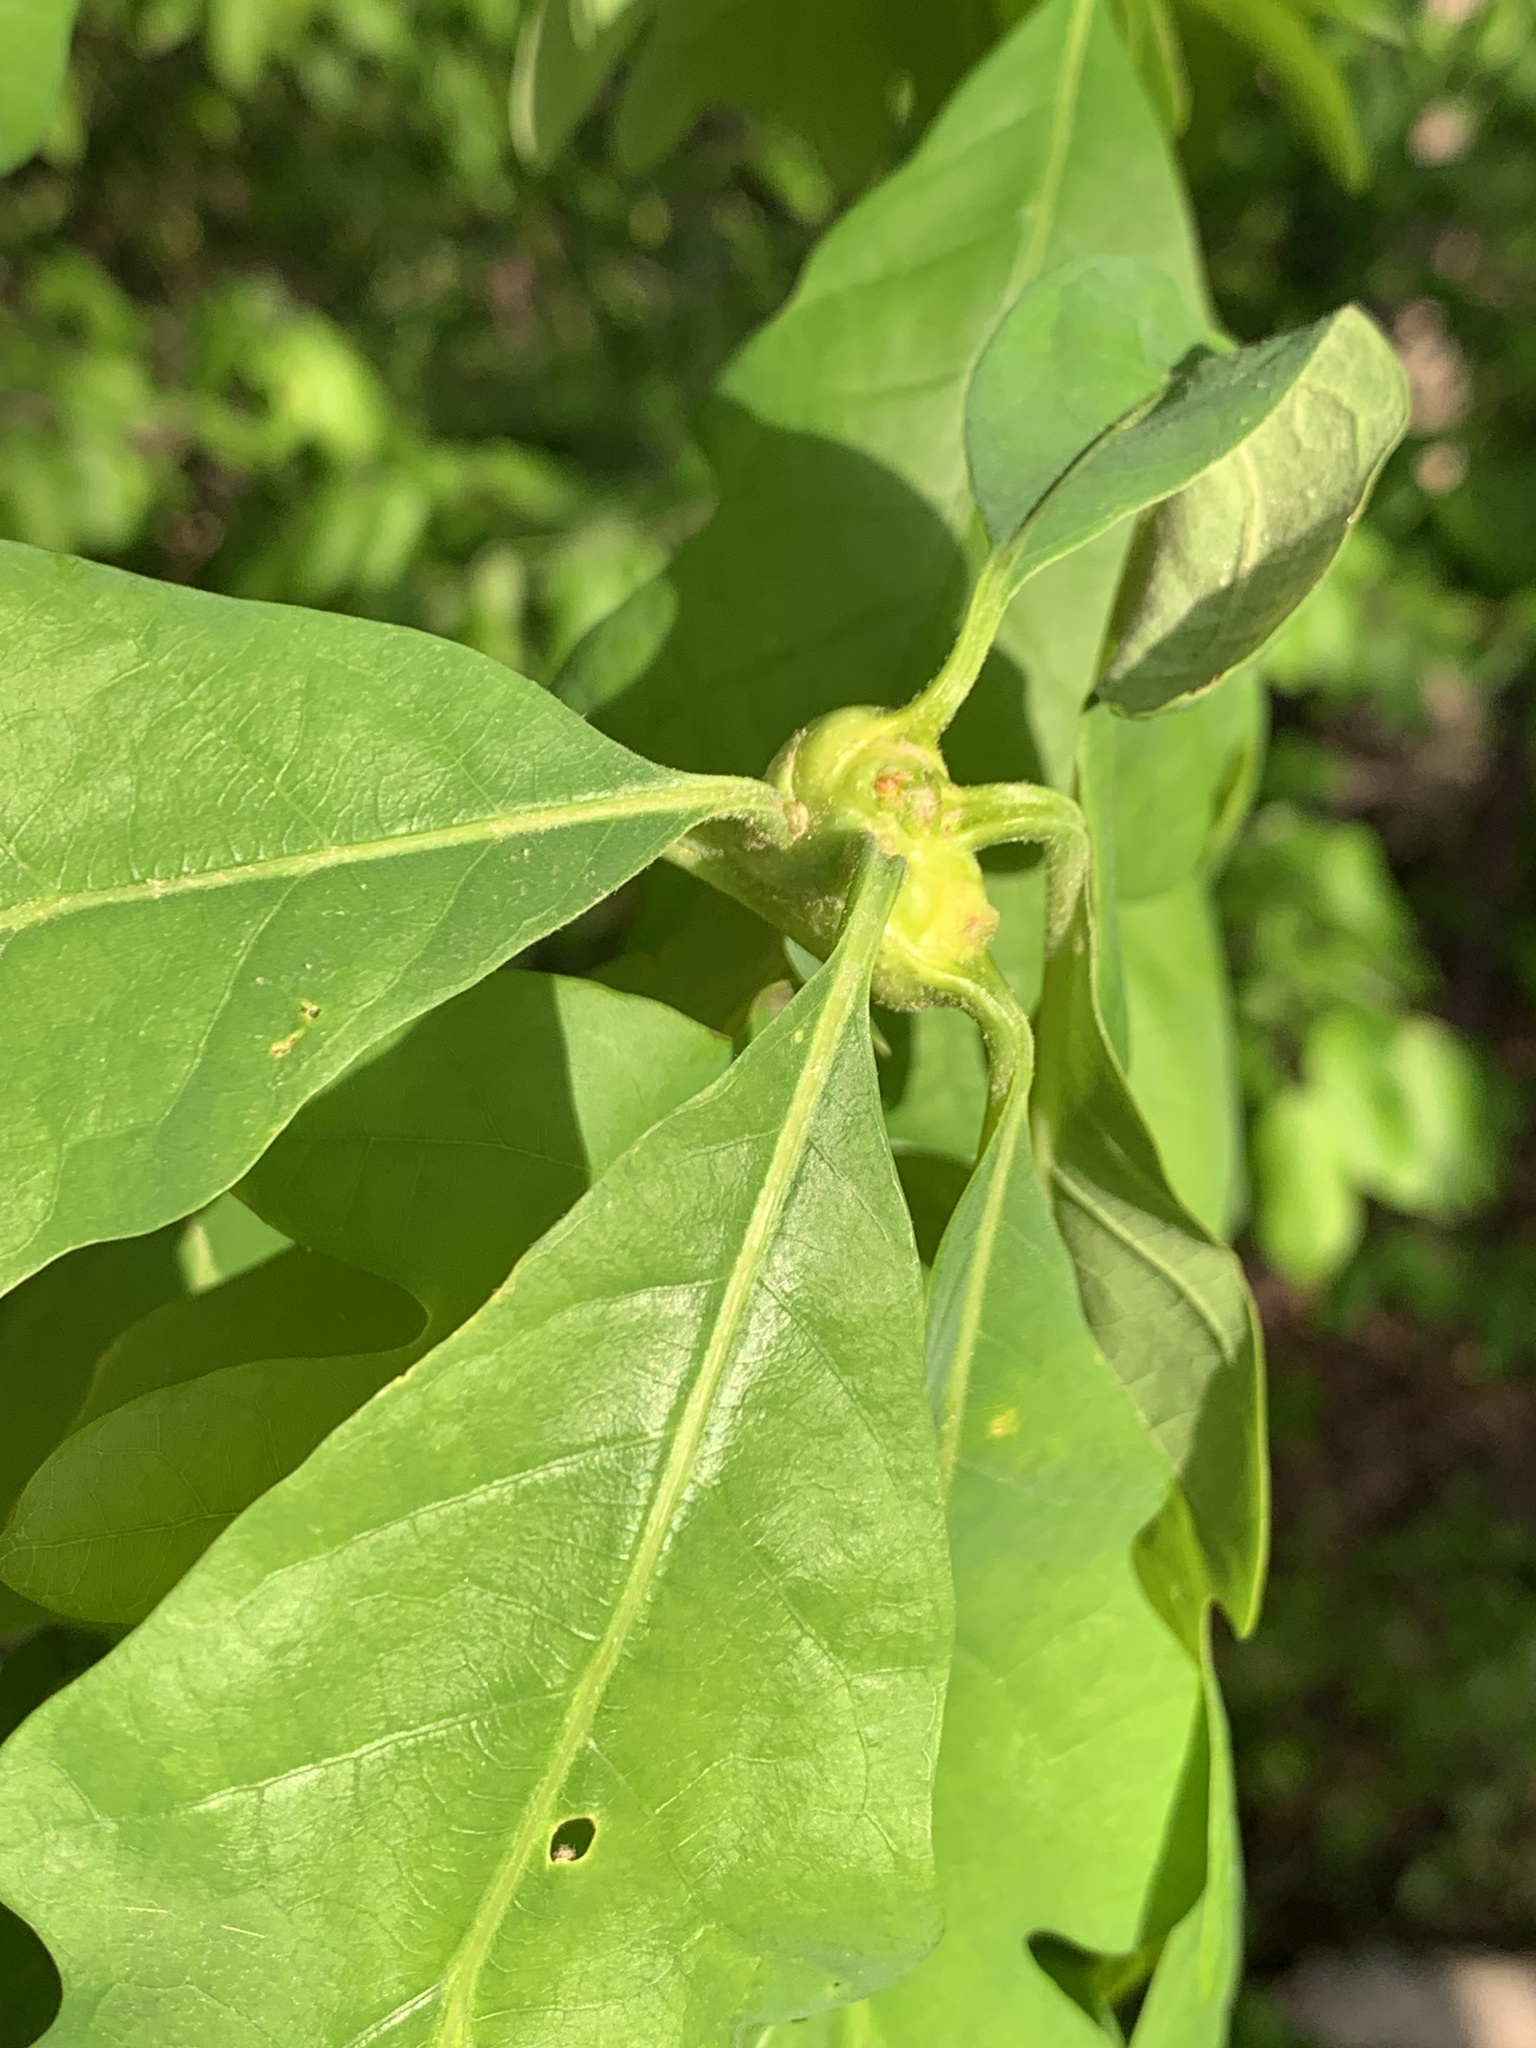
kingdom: Animalia
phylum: Arthropoda
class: Insecta
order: Hymenoptera
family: Cynipidae
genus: Callirhytis
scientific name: Callirhytis clavula
